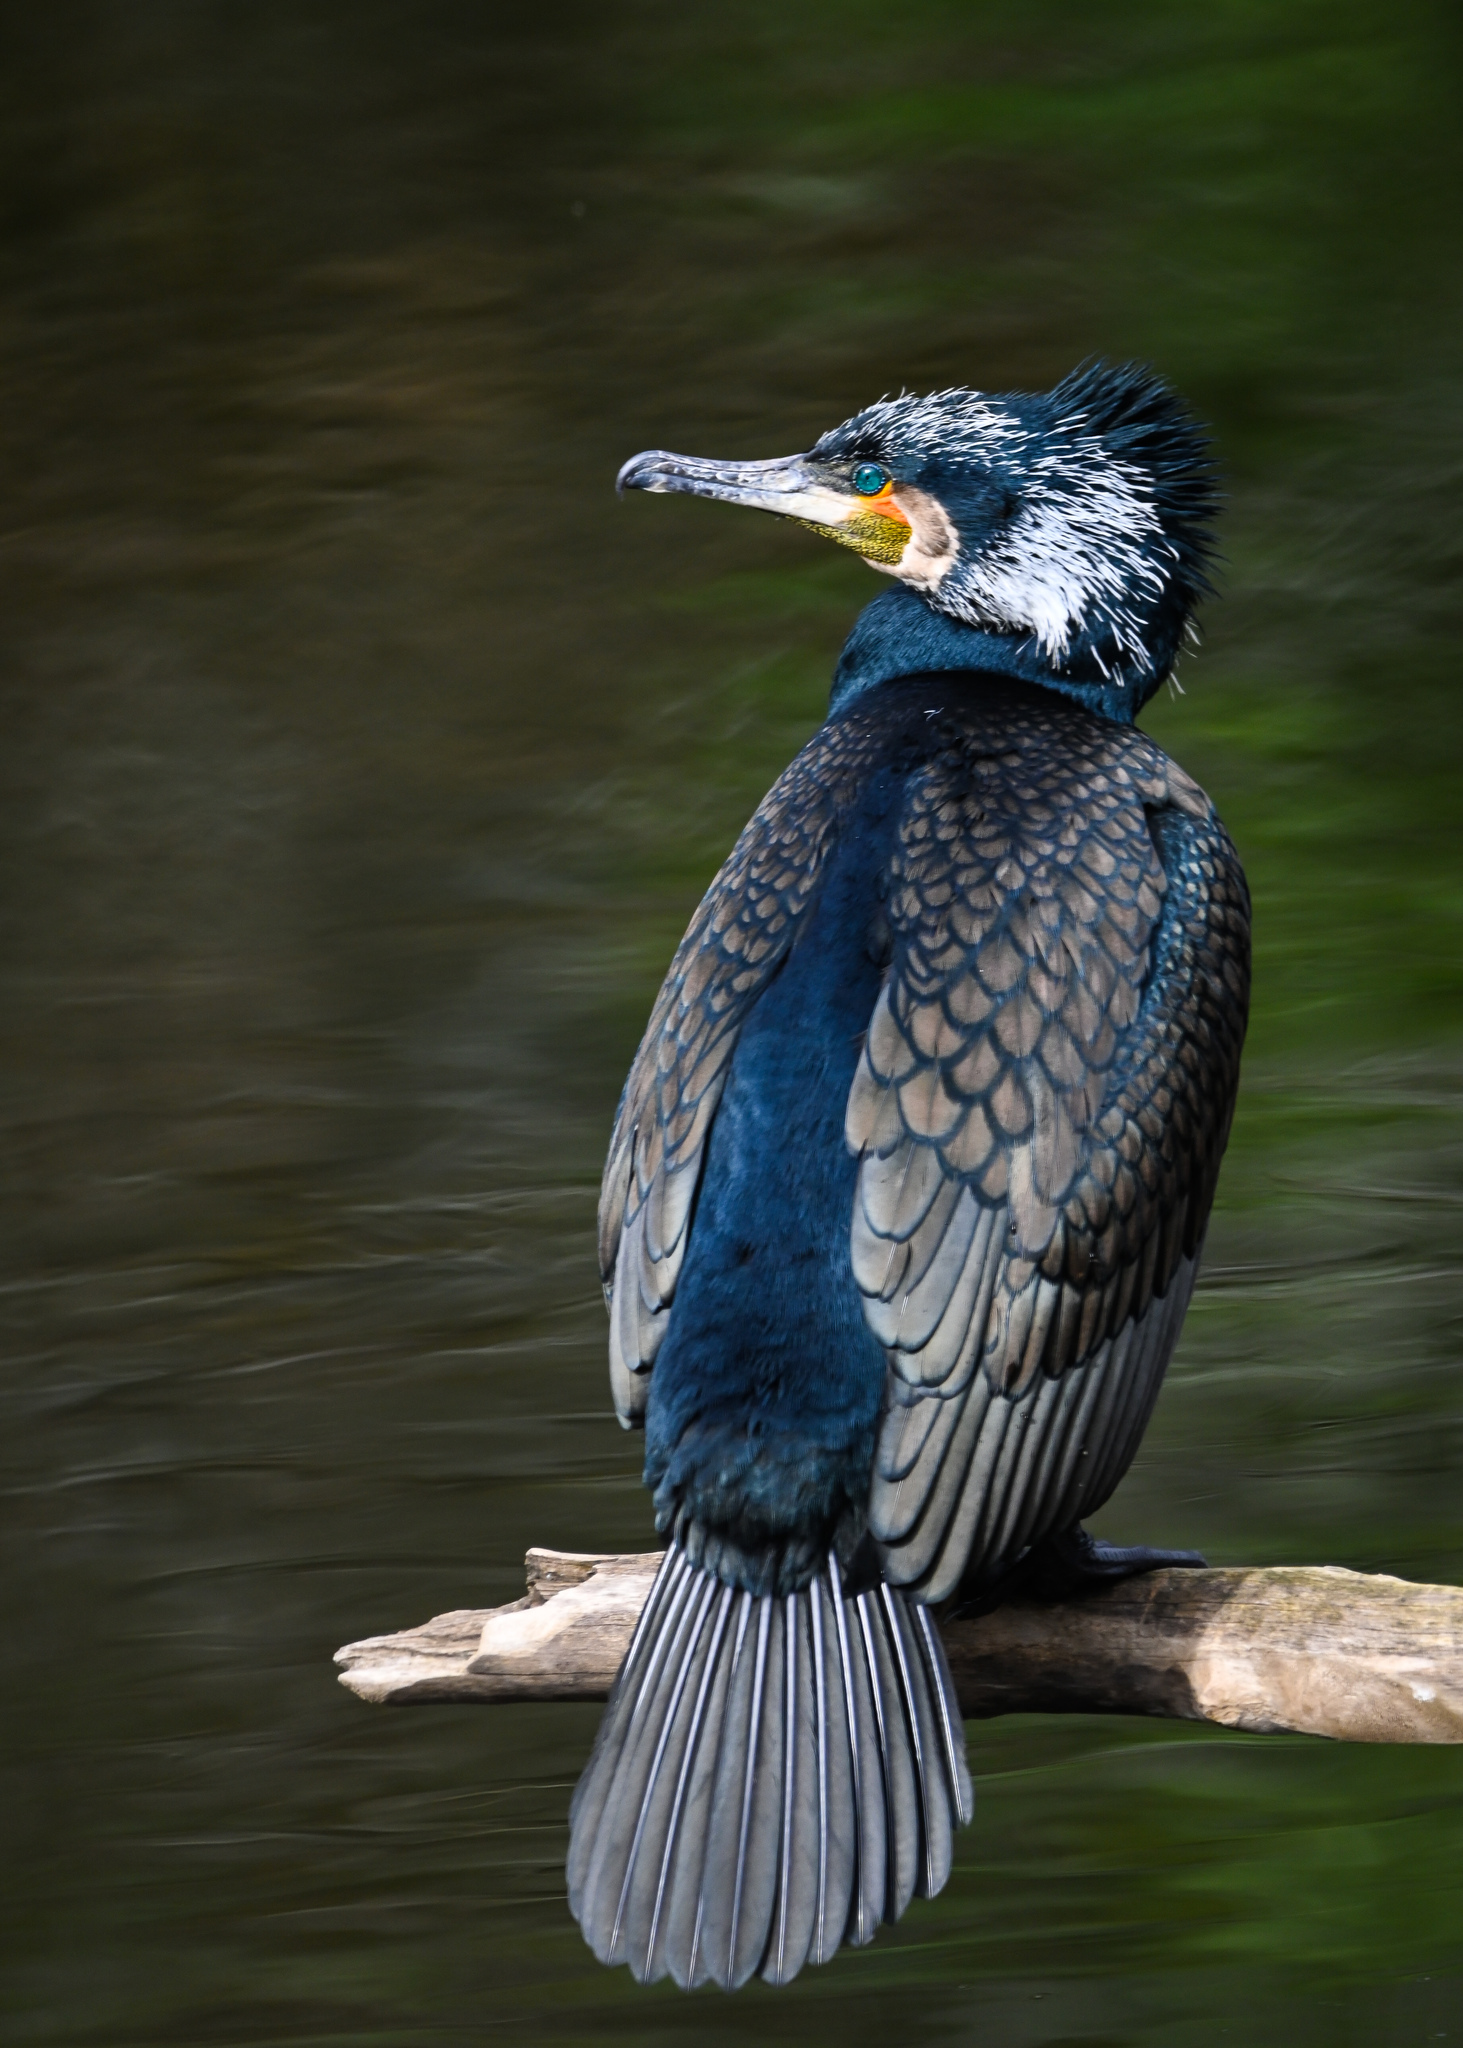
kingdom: Animalia
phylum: Chordata
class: Aves
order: Suliformes
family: Phalacrocoracidae
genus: Phalacrocorax
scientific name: Phalacrocorax carbo
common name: Great cormorant
